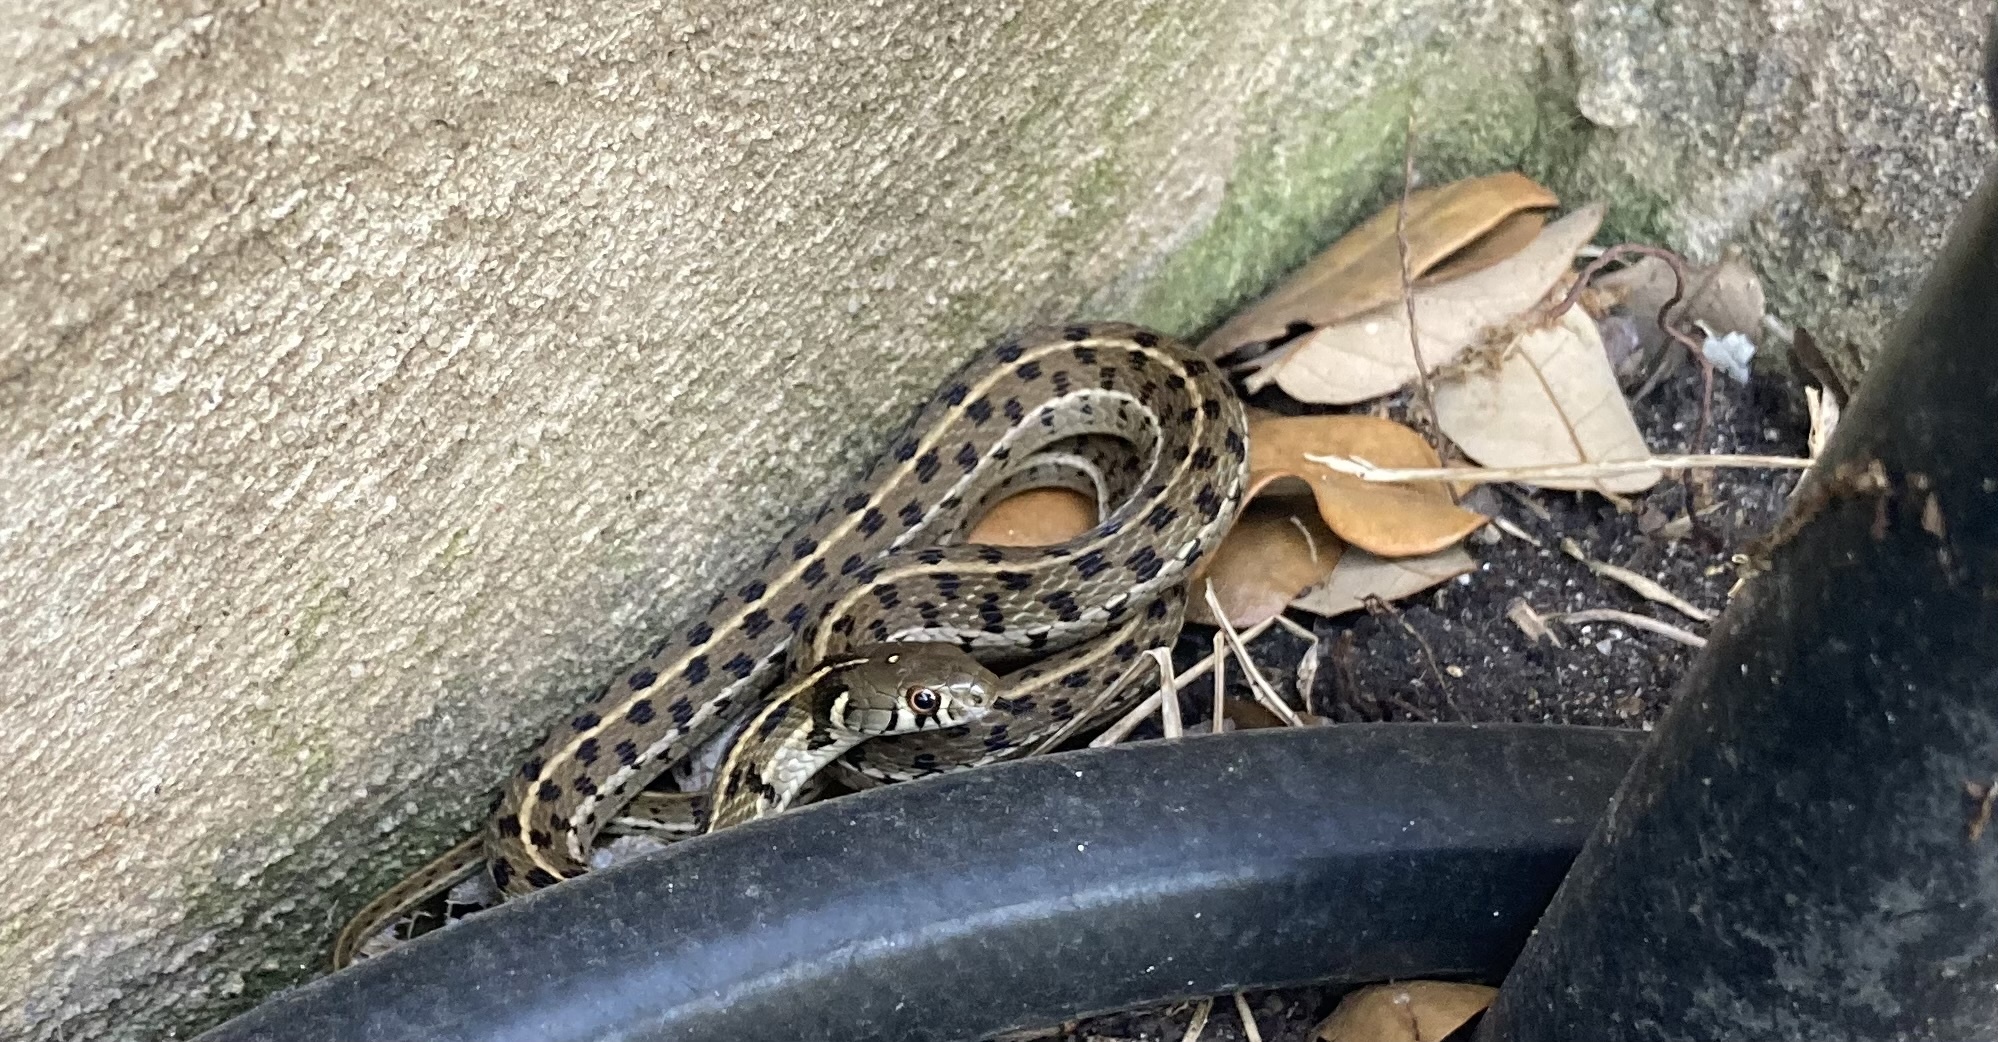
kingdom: Animalia
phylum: Chordata
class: Squamata
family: Colubridae
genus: Thamnophis
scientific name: Thamnophis marcianus
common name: Checkered garter snake
